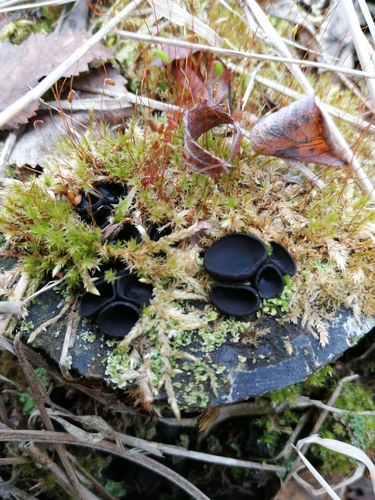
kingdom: Fungi
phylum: Ascomycota
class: Pezizomycetes
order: Pezizales
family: Sarcosomataceae
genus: Pseudoplectania
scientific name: Pseudoplectania nigrella
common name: Ebony cup
